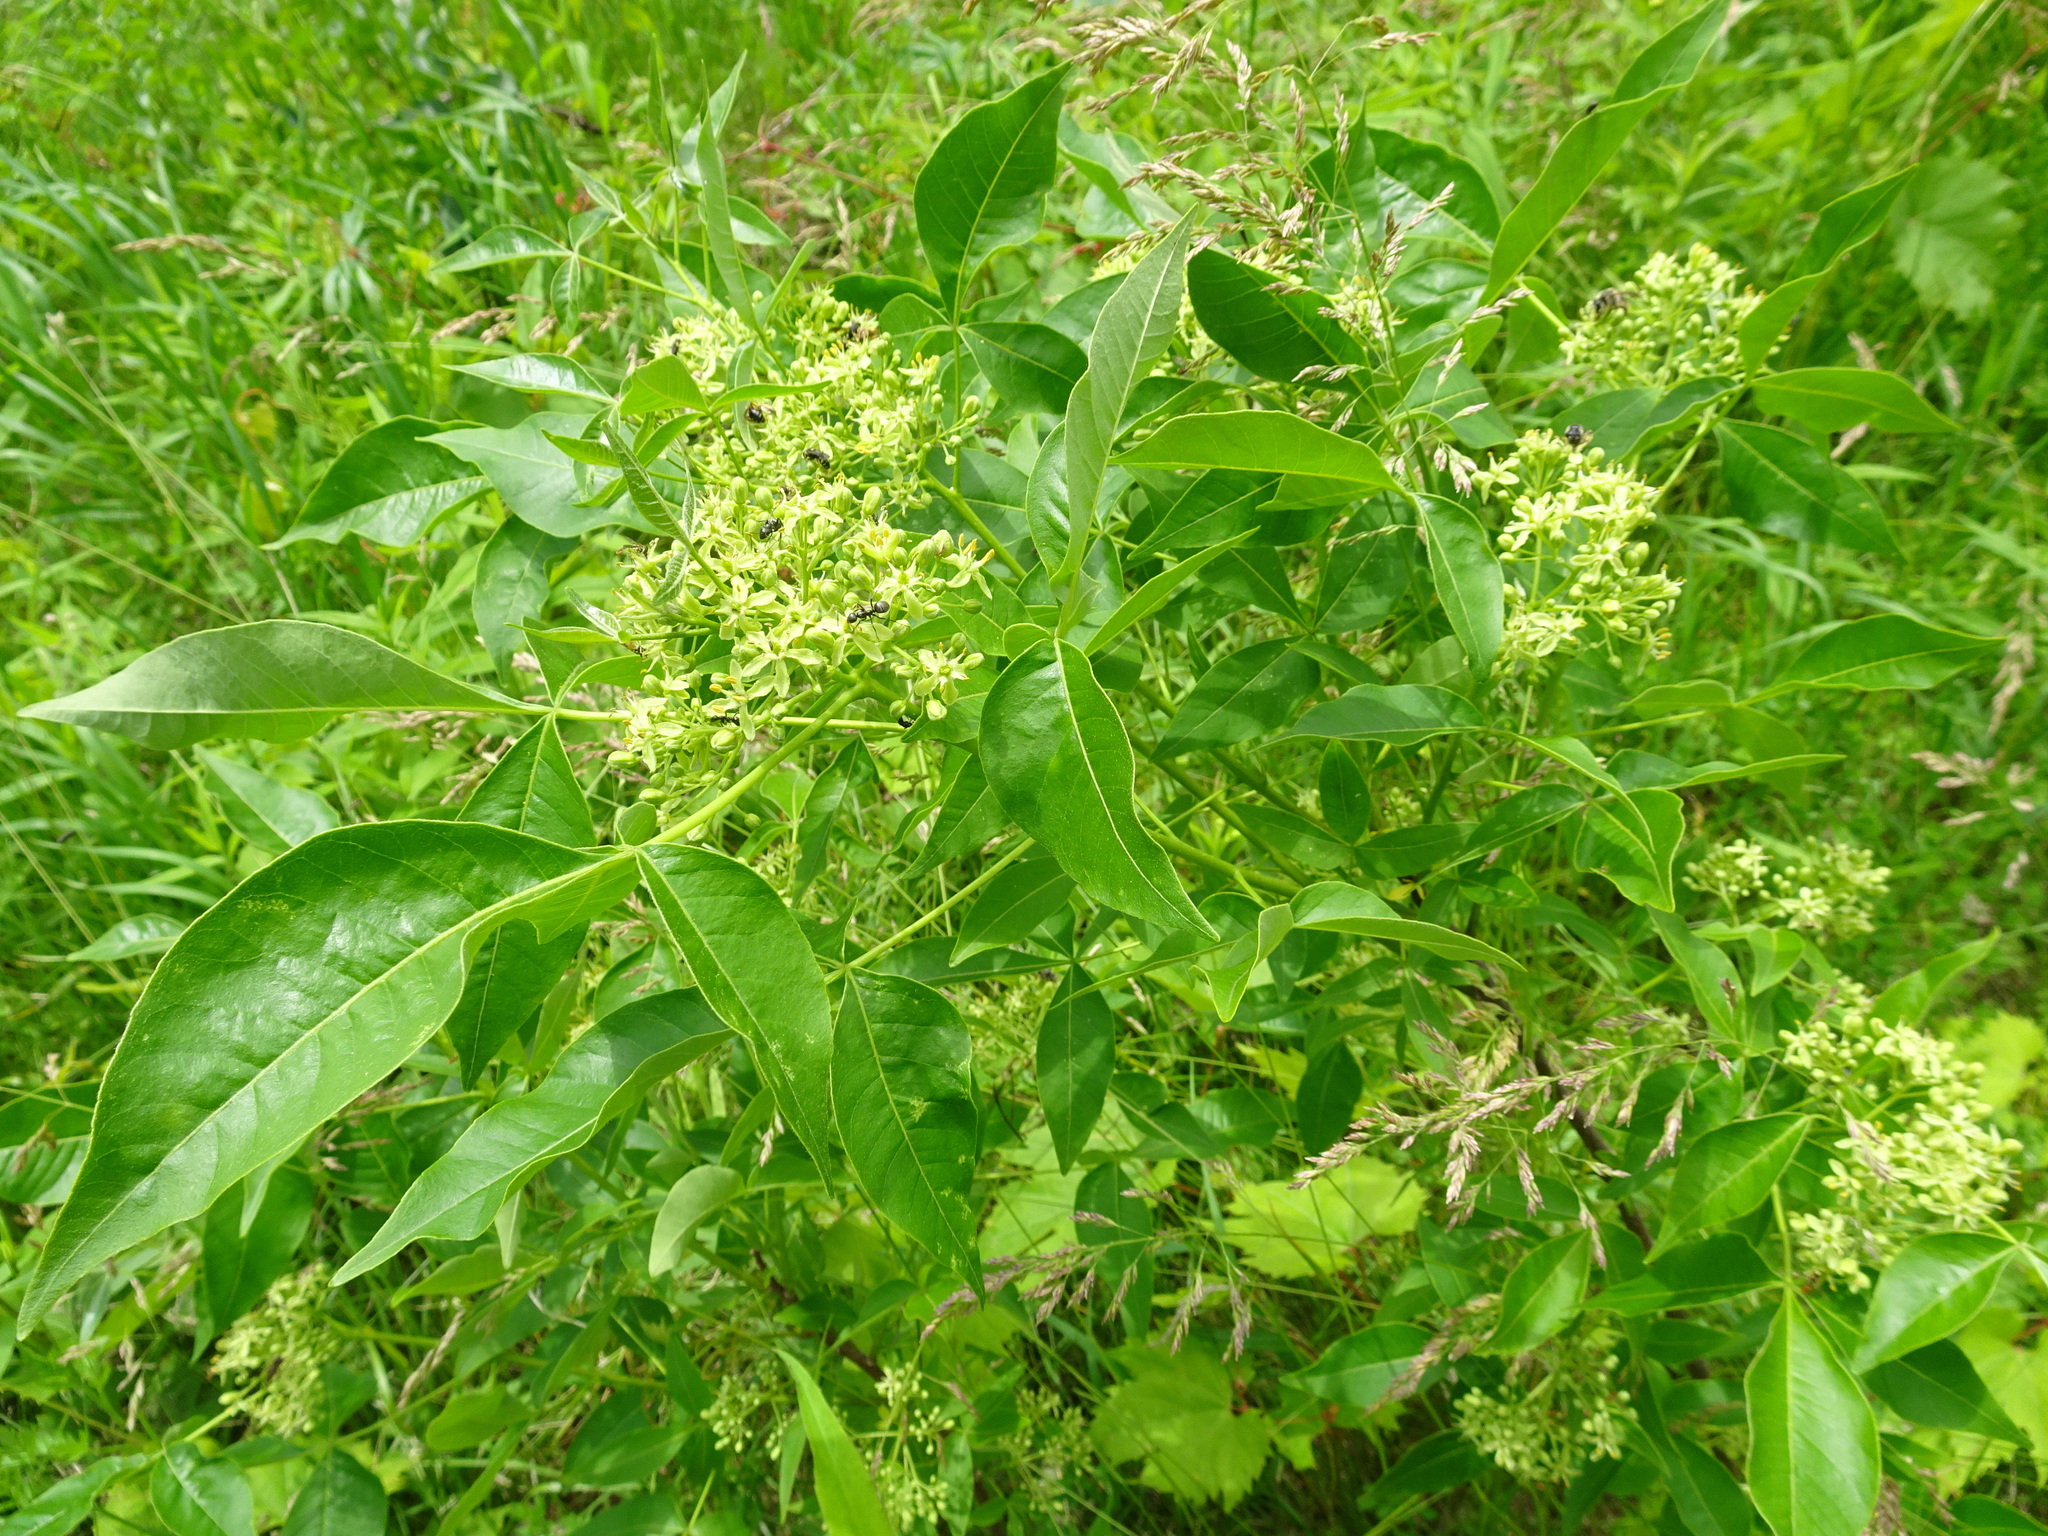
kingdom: Plantae
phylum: Tracheophyta
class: Magnoliopsida
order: Sapindales
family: Rutaceae
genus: Ptelea
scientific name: Ptelea trifoliata
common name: Common hop-tree
